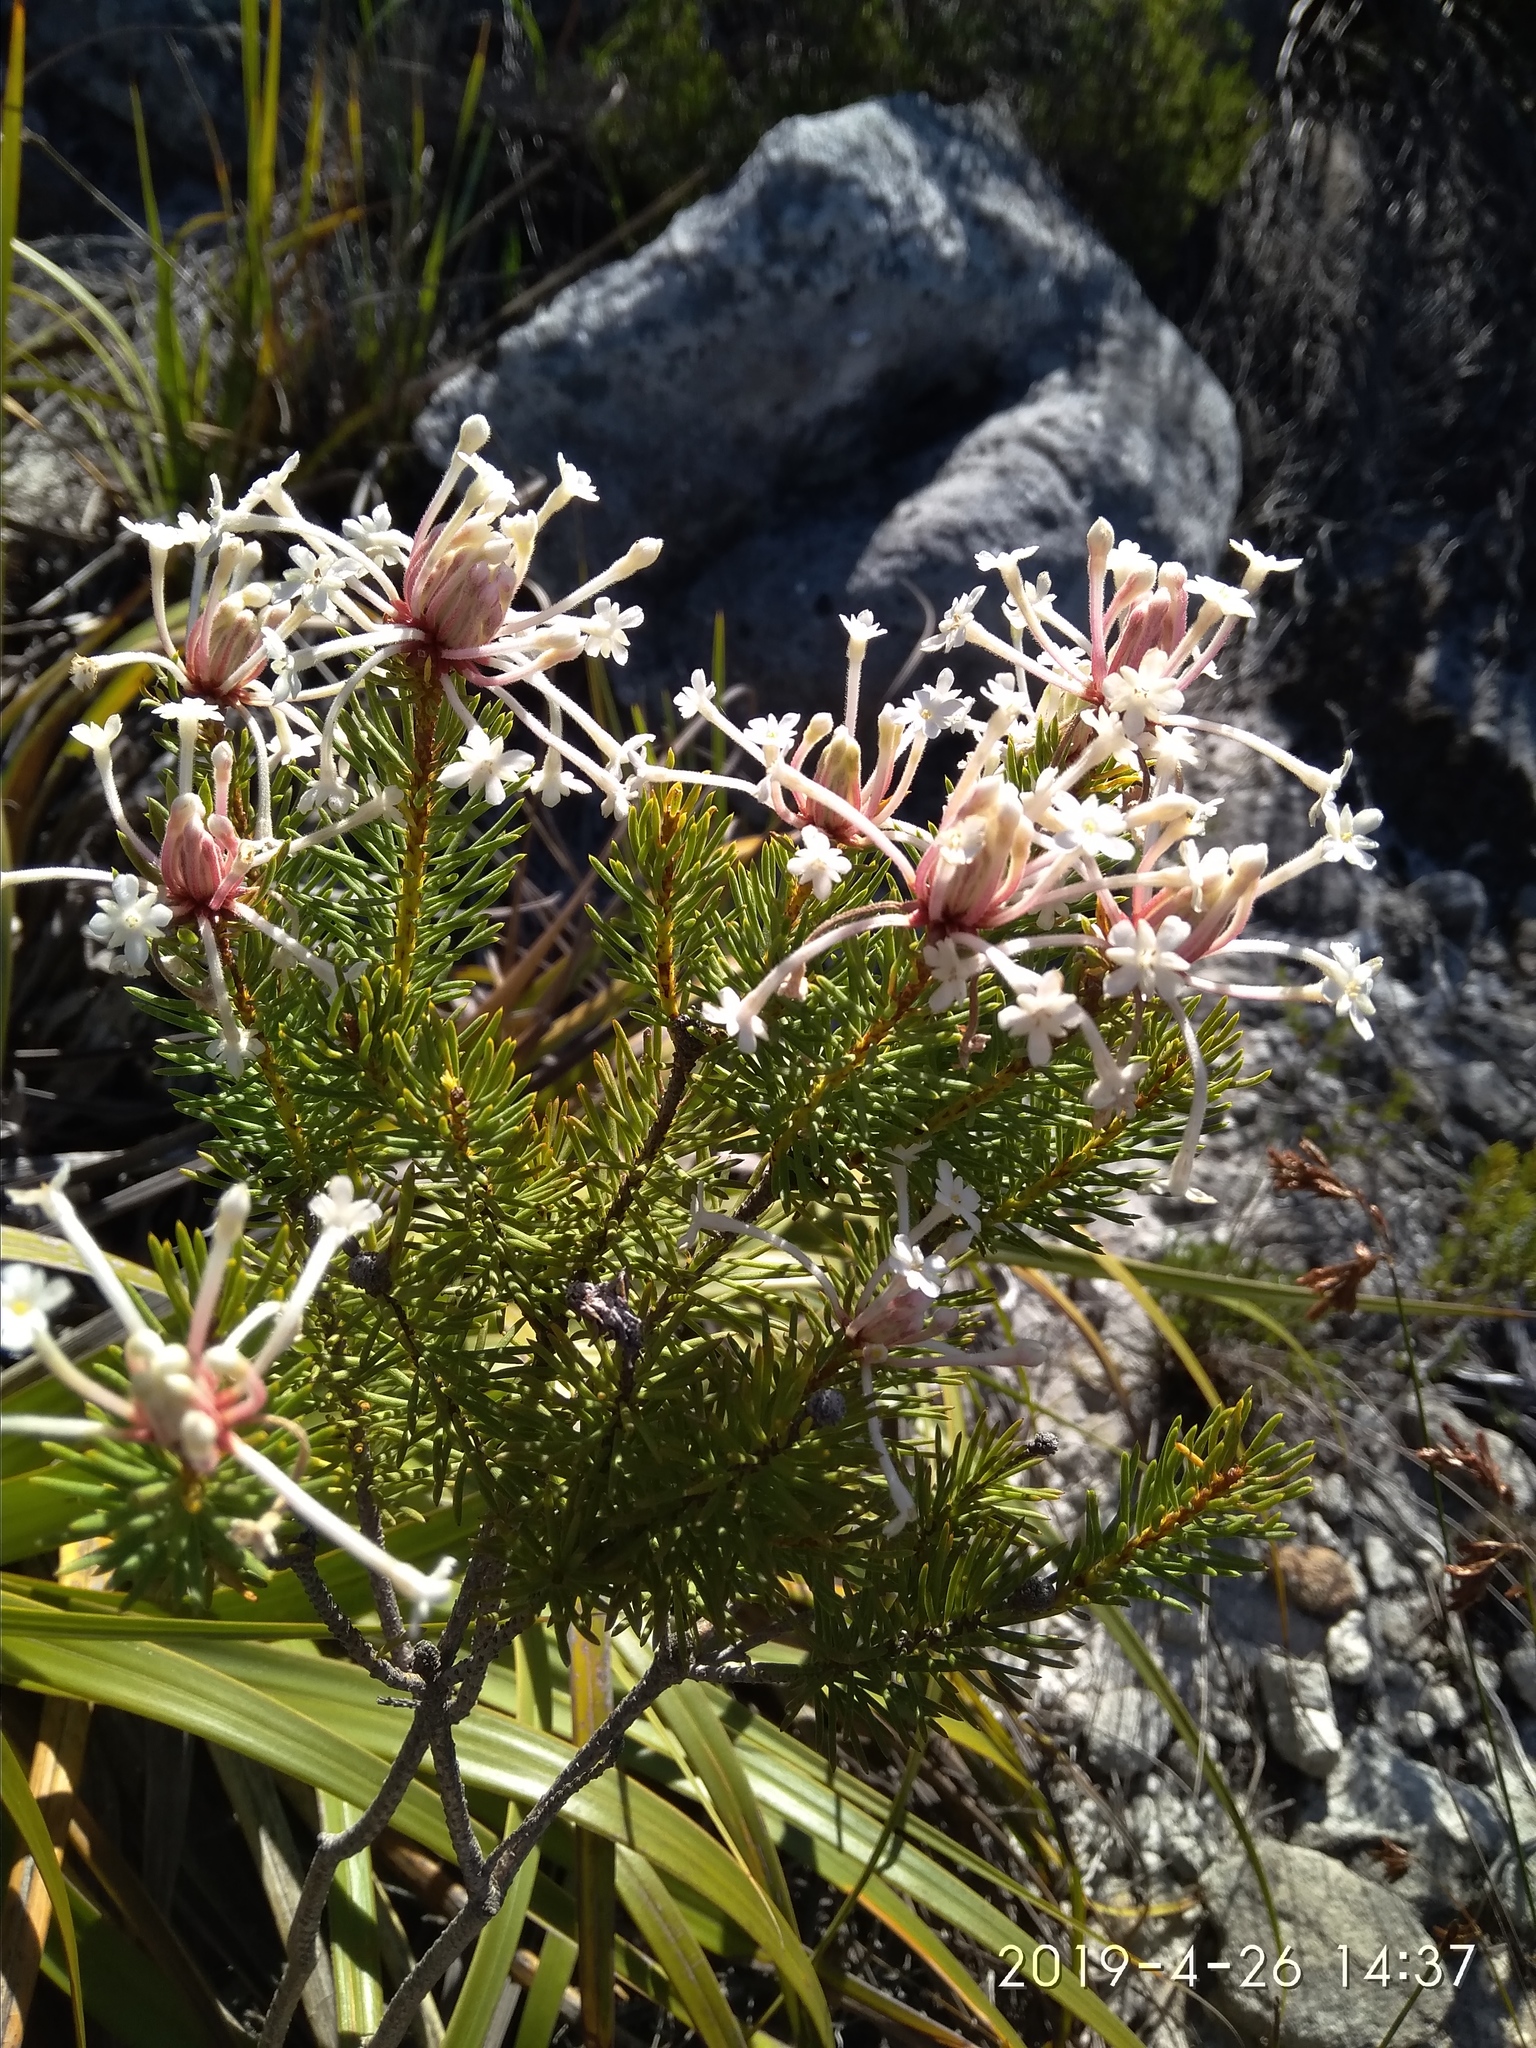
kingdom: Plantae
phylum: Tracheophyta
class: Magnoliopsida
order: Malvales
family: Thymelaeaceae
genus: Gnidia
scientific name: Gnidia pinifolia
